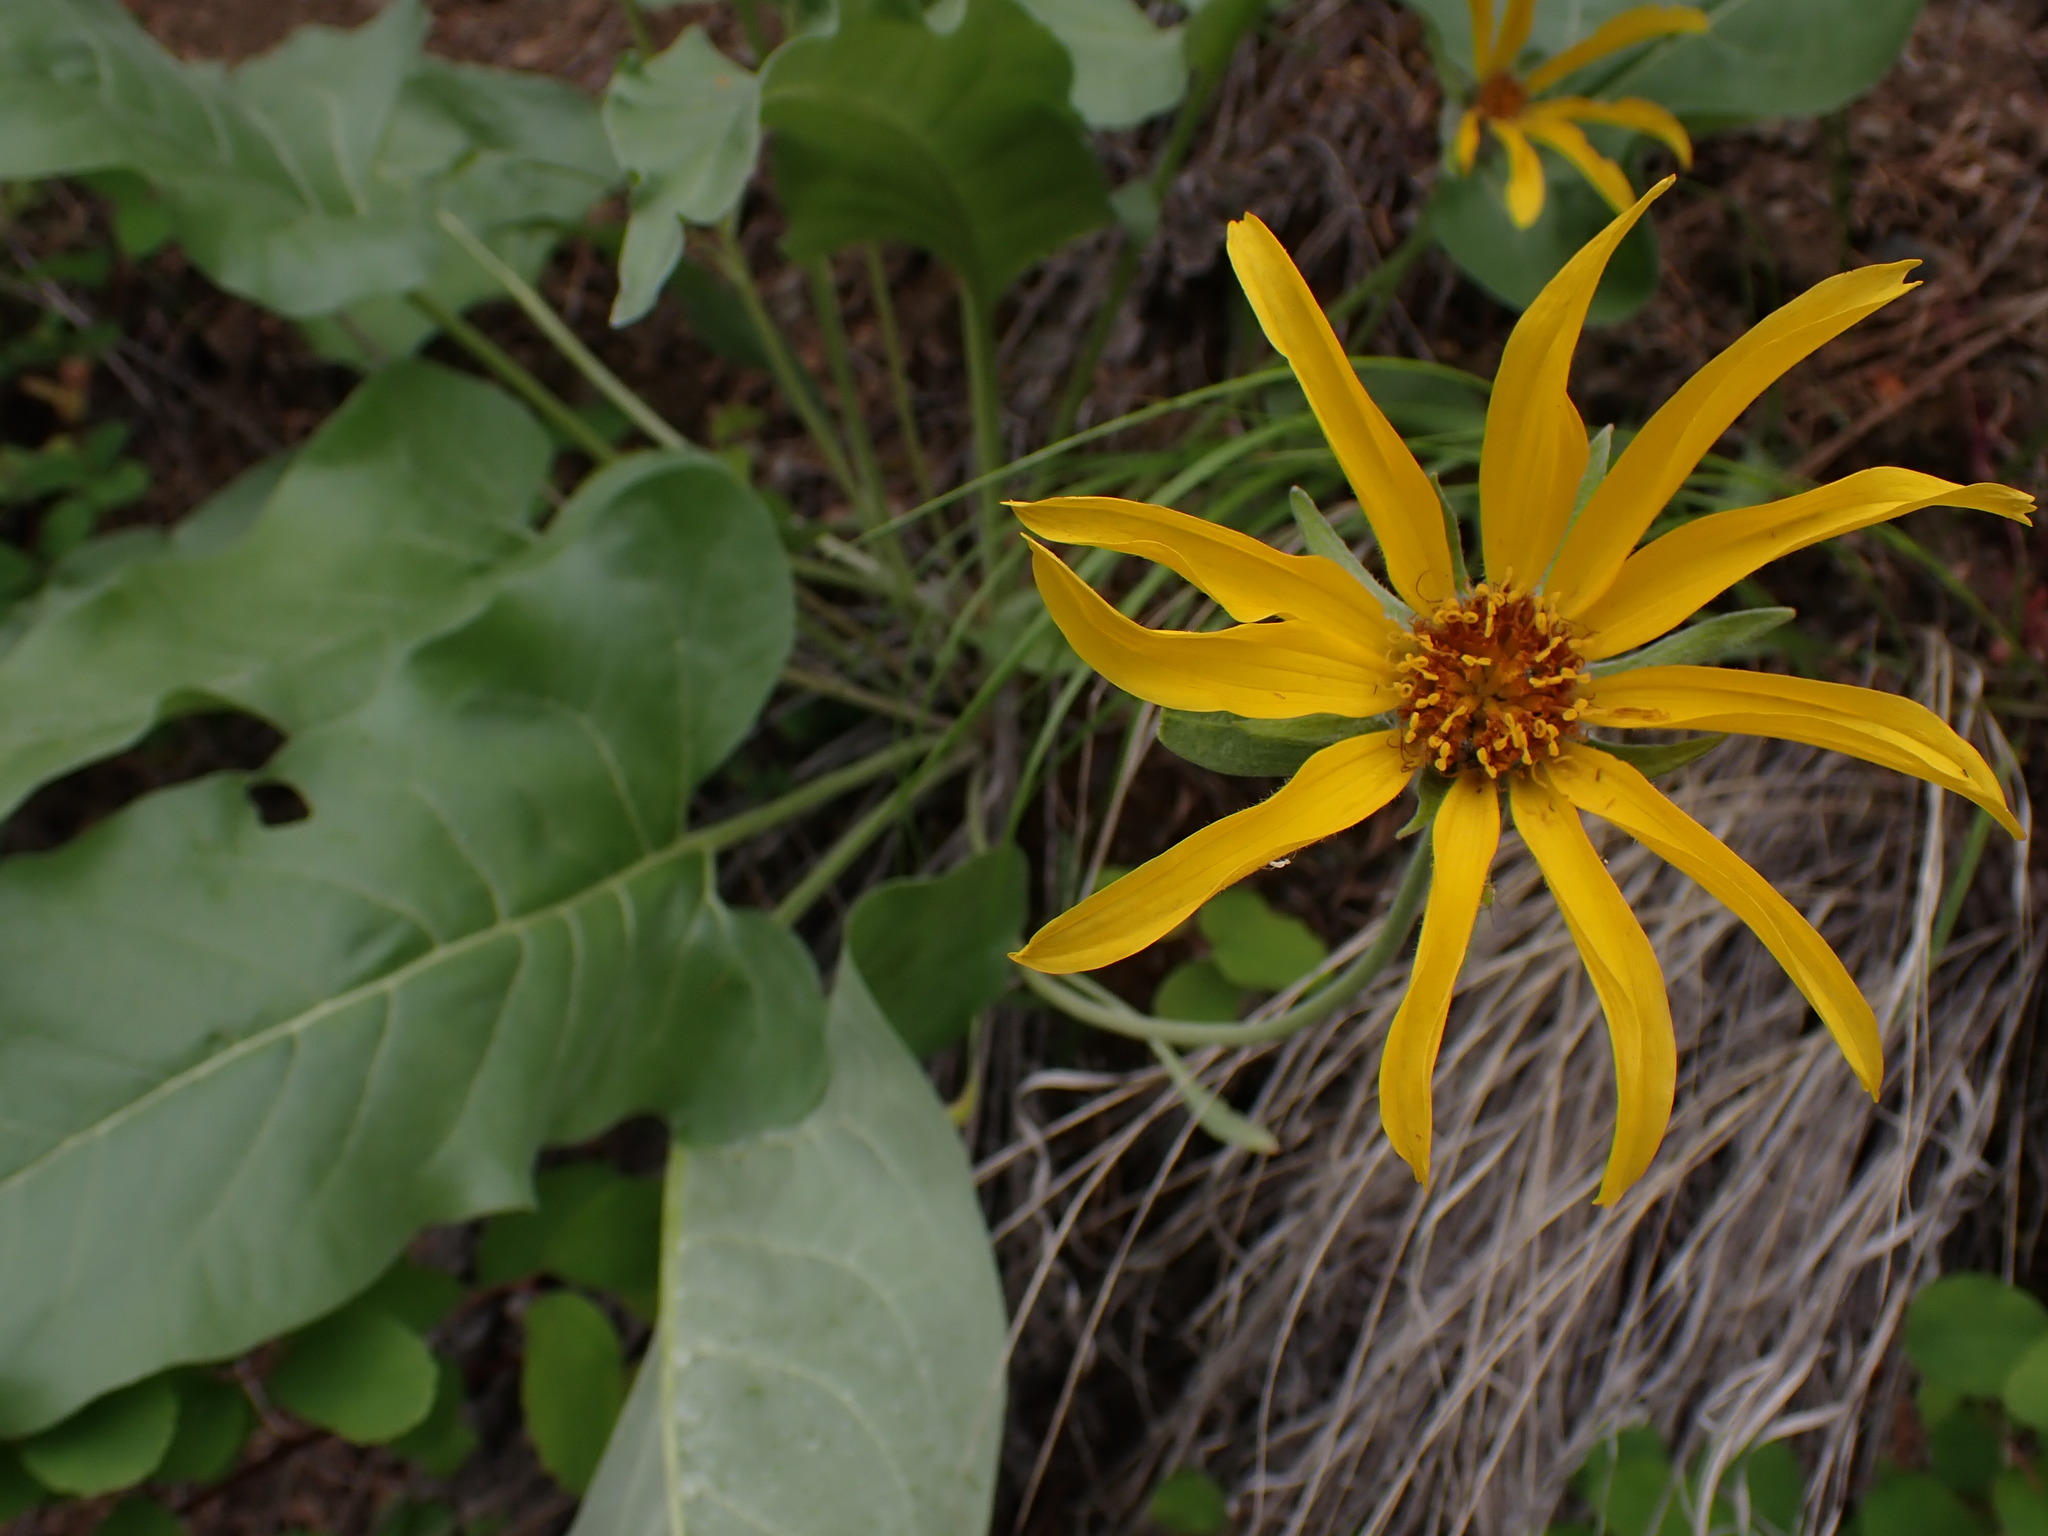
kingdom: Plantae
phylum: Tracheophyta
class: Magnoliopsida
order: Asterales
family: Asteraceae
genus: Wyethia
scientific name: Wyethia sagittata
